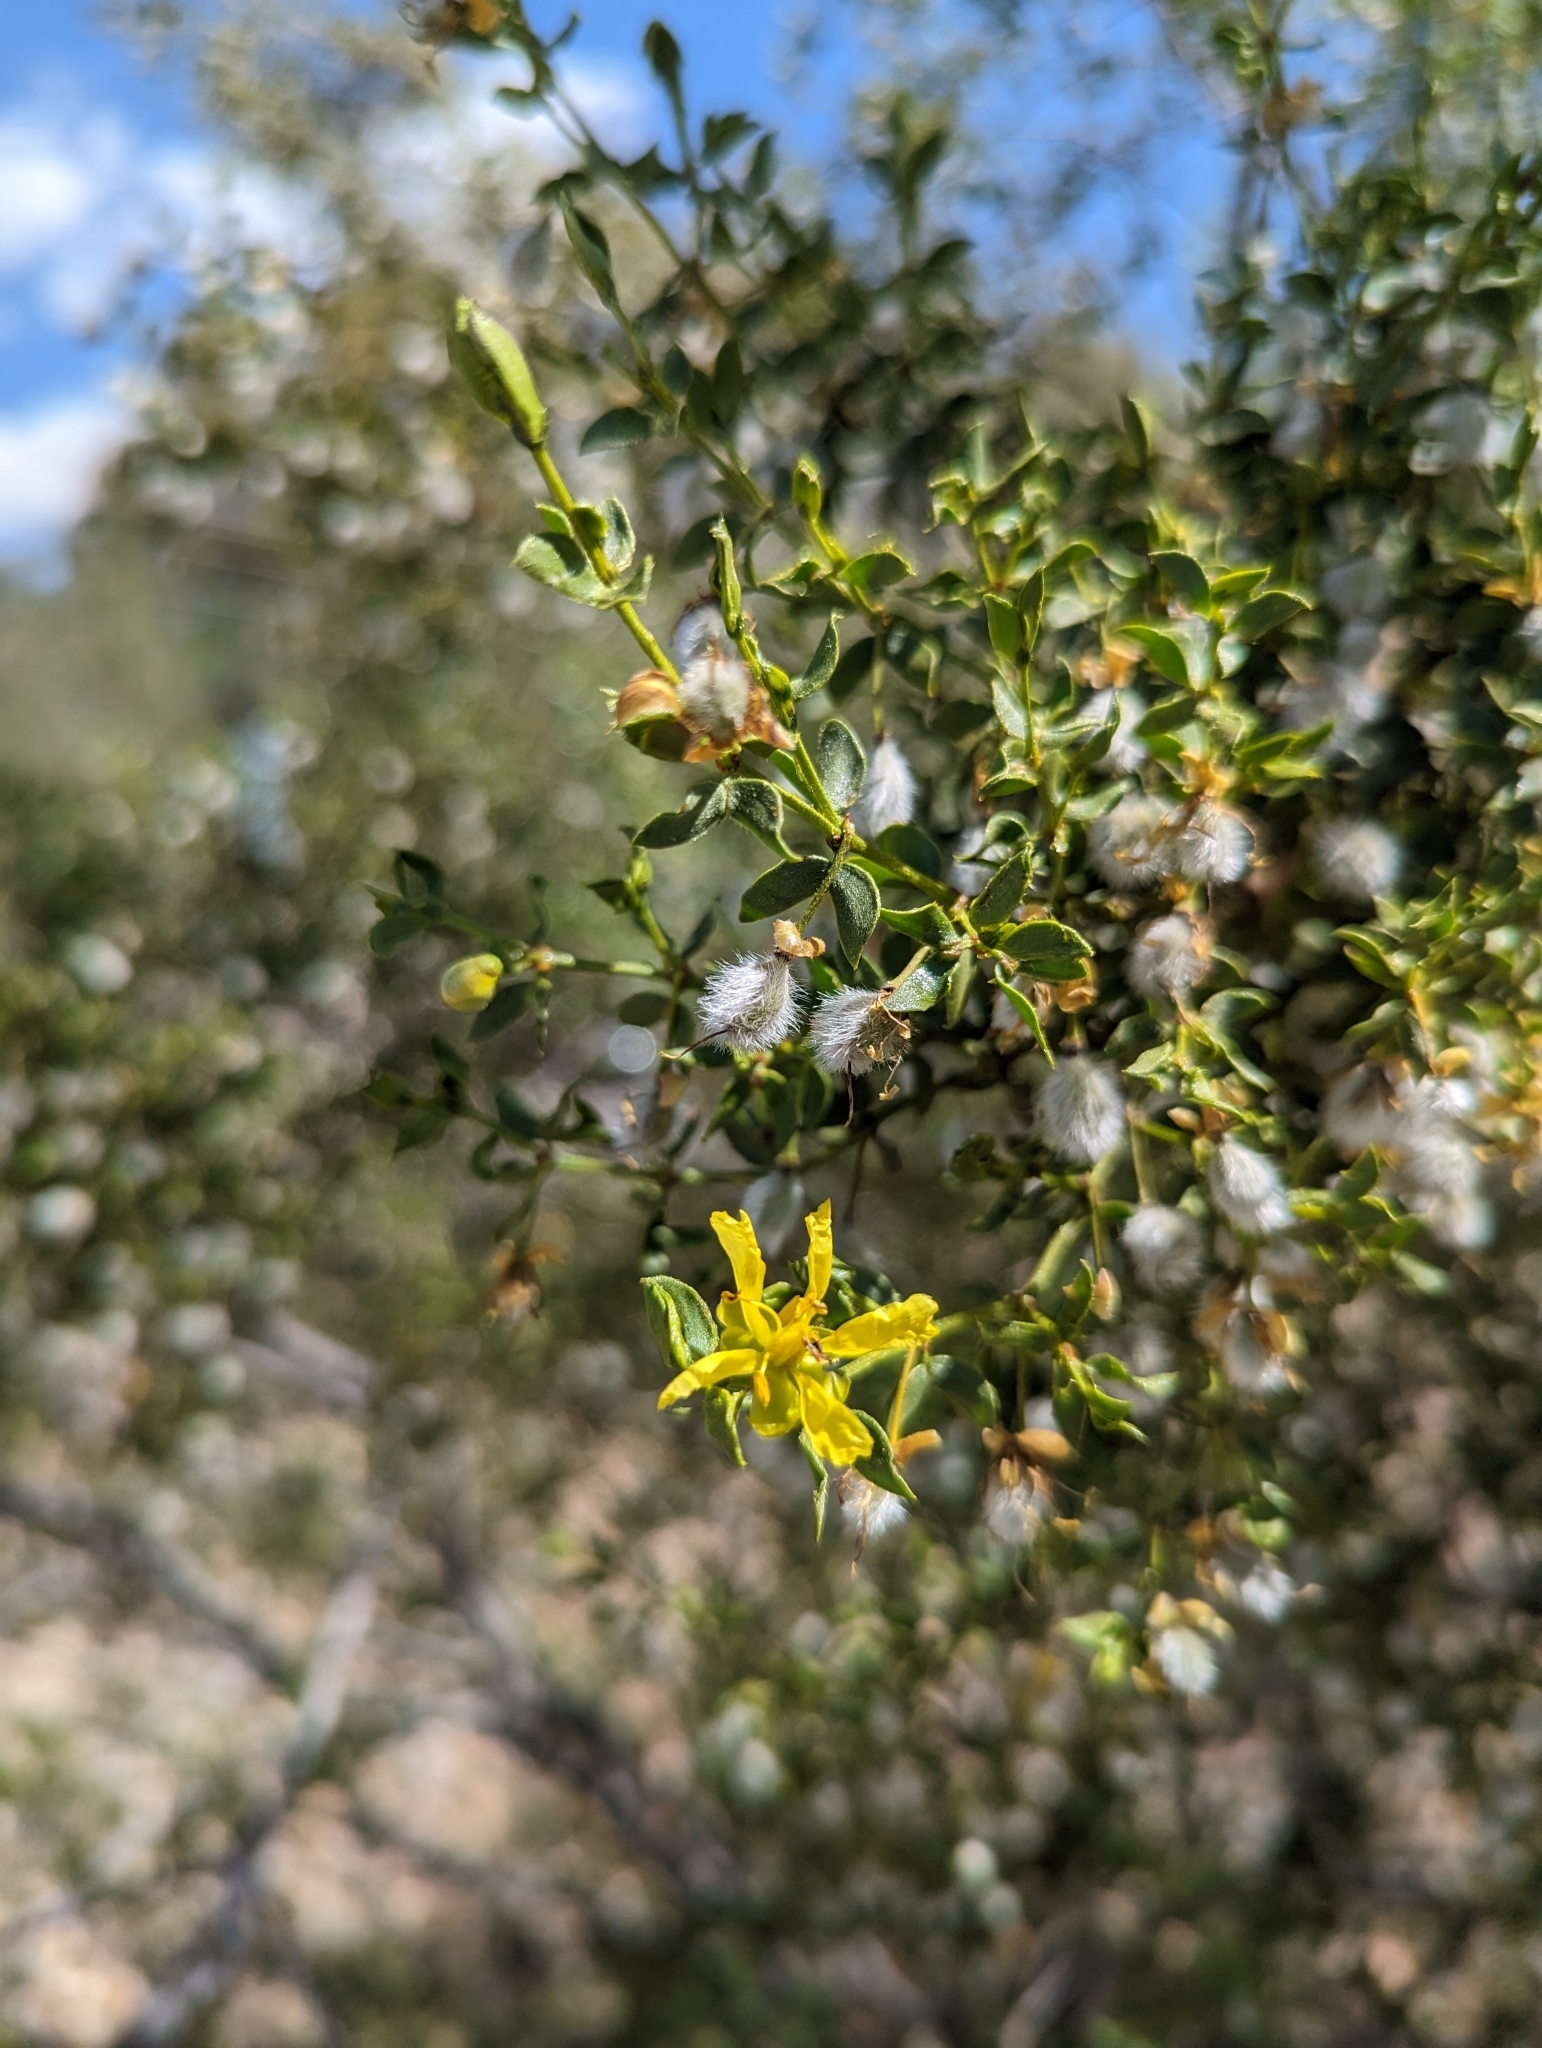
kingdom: Plantae
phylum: Tracheophyta
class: Magnoliopsida
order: Zygophyllales
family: Zygophyllaceae
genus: Larrea
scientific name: Larrea tridentata
